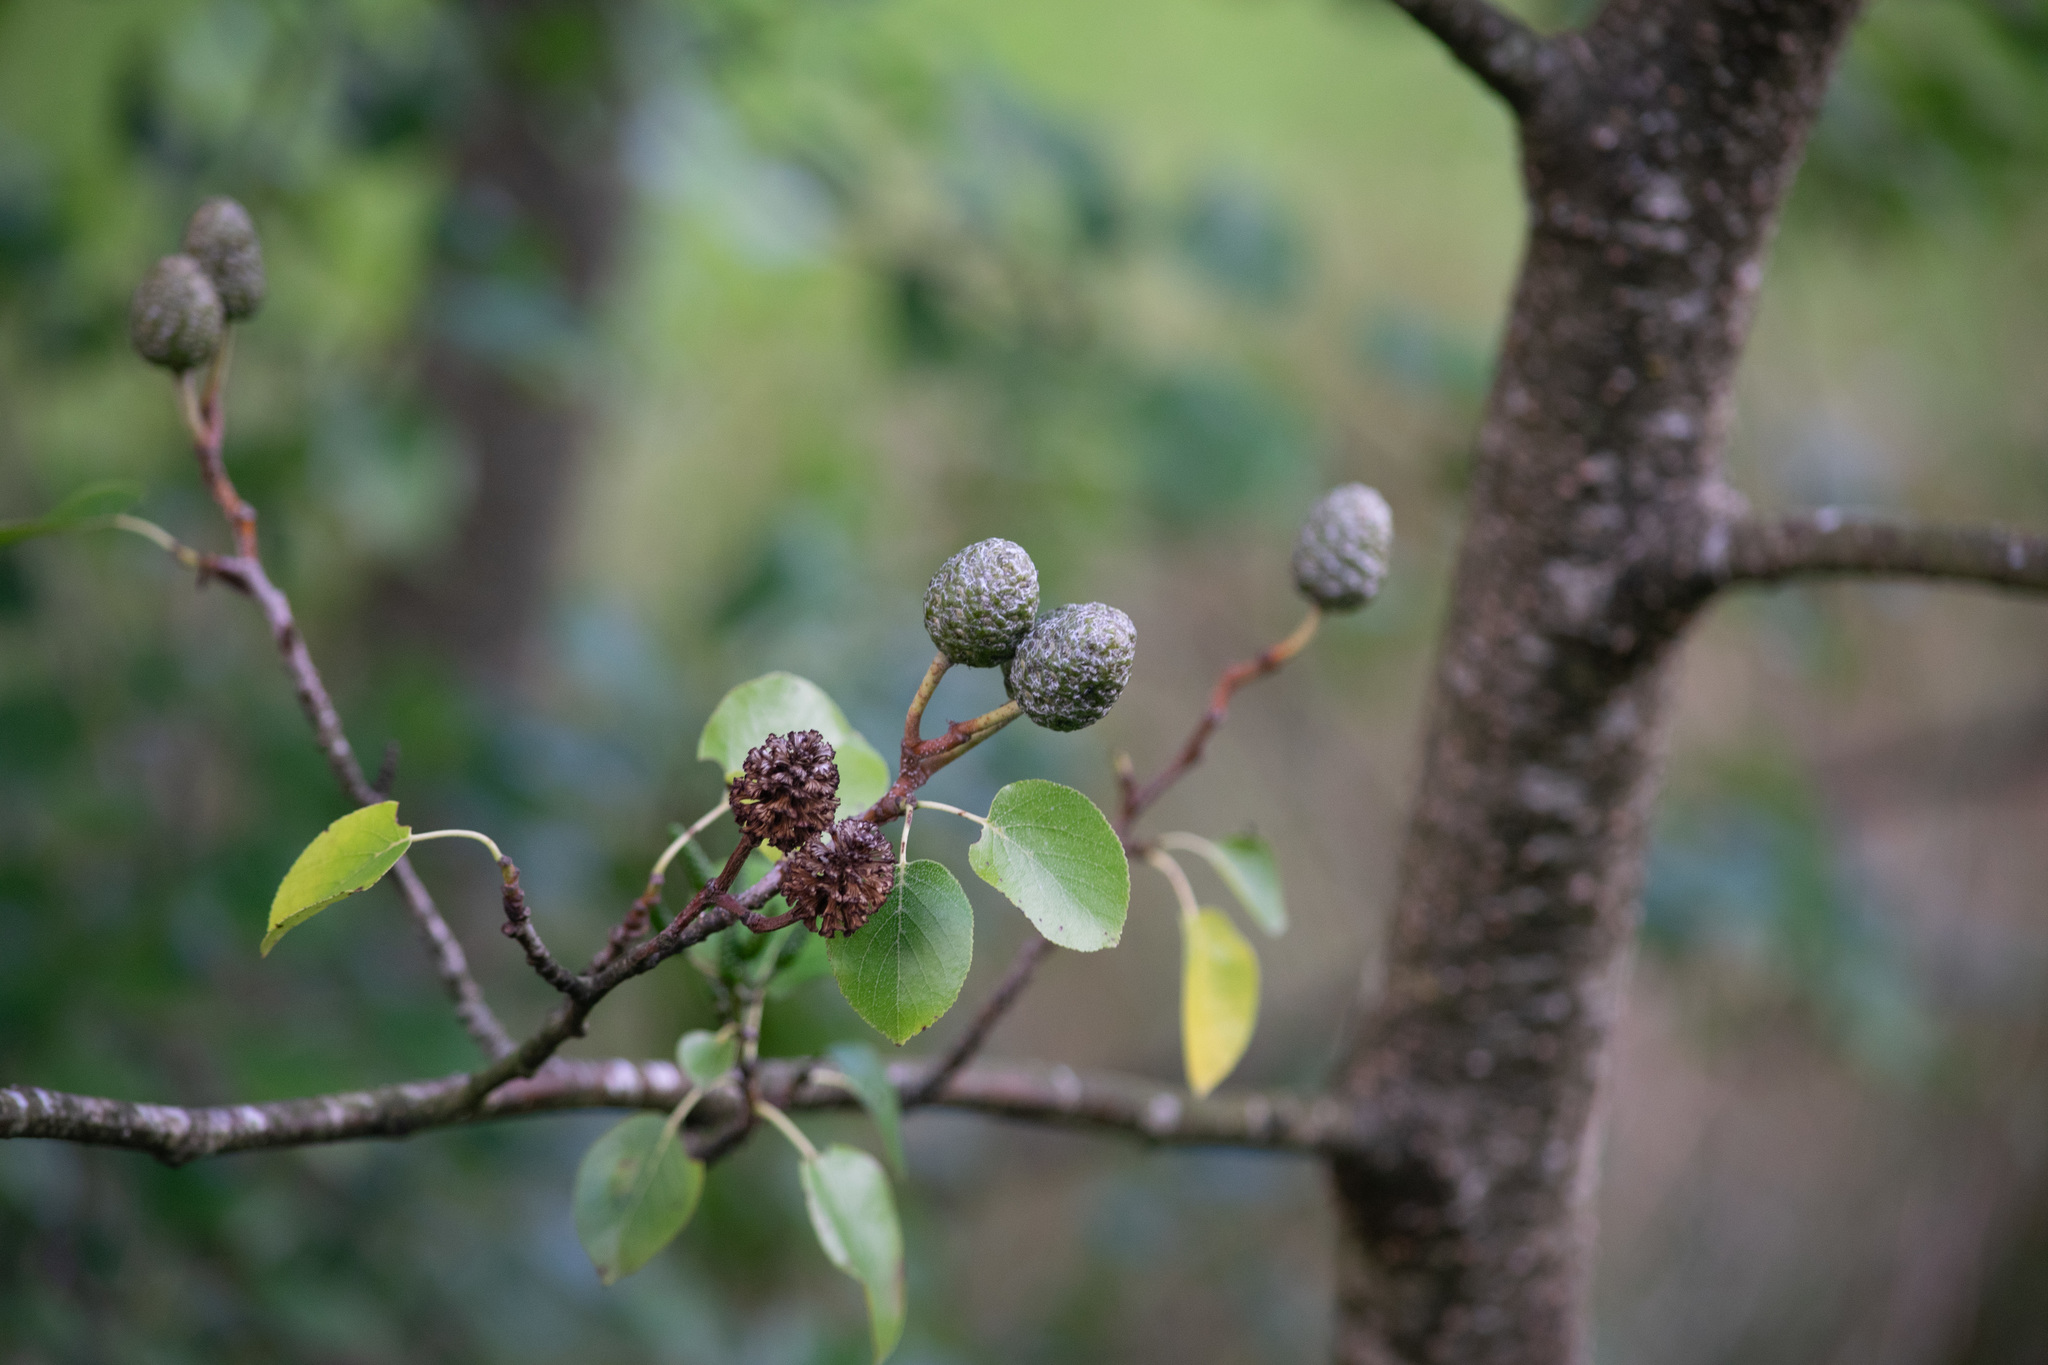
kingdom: Plantae
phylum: Tracheophyta
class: Magnoliopsida
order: Fagales
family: Betulaceae
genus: Alnus
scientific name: Alnus cordata
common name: Italian alder
